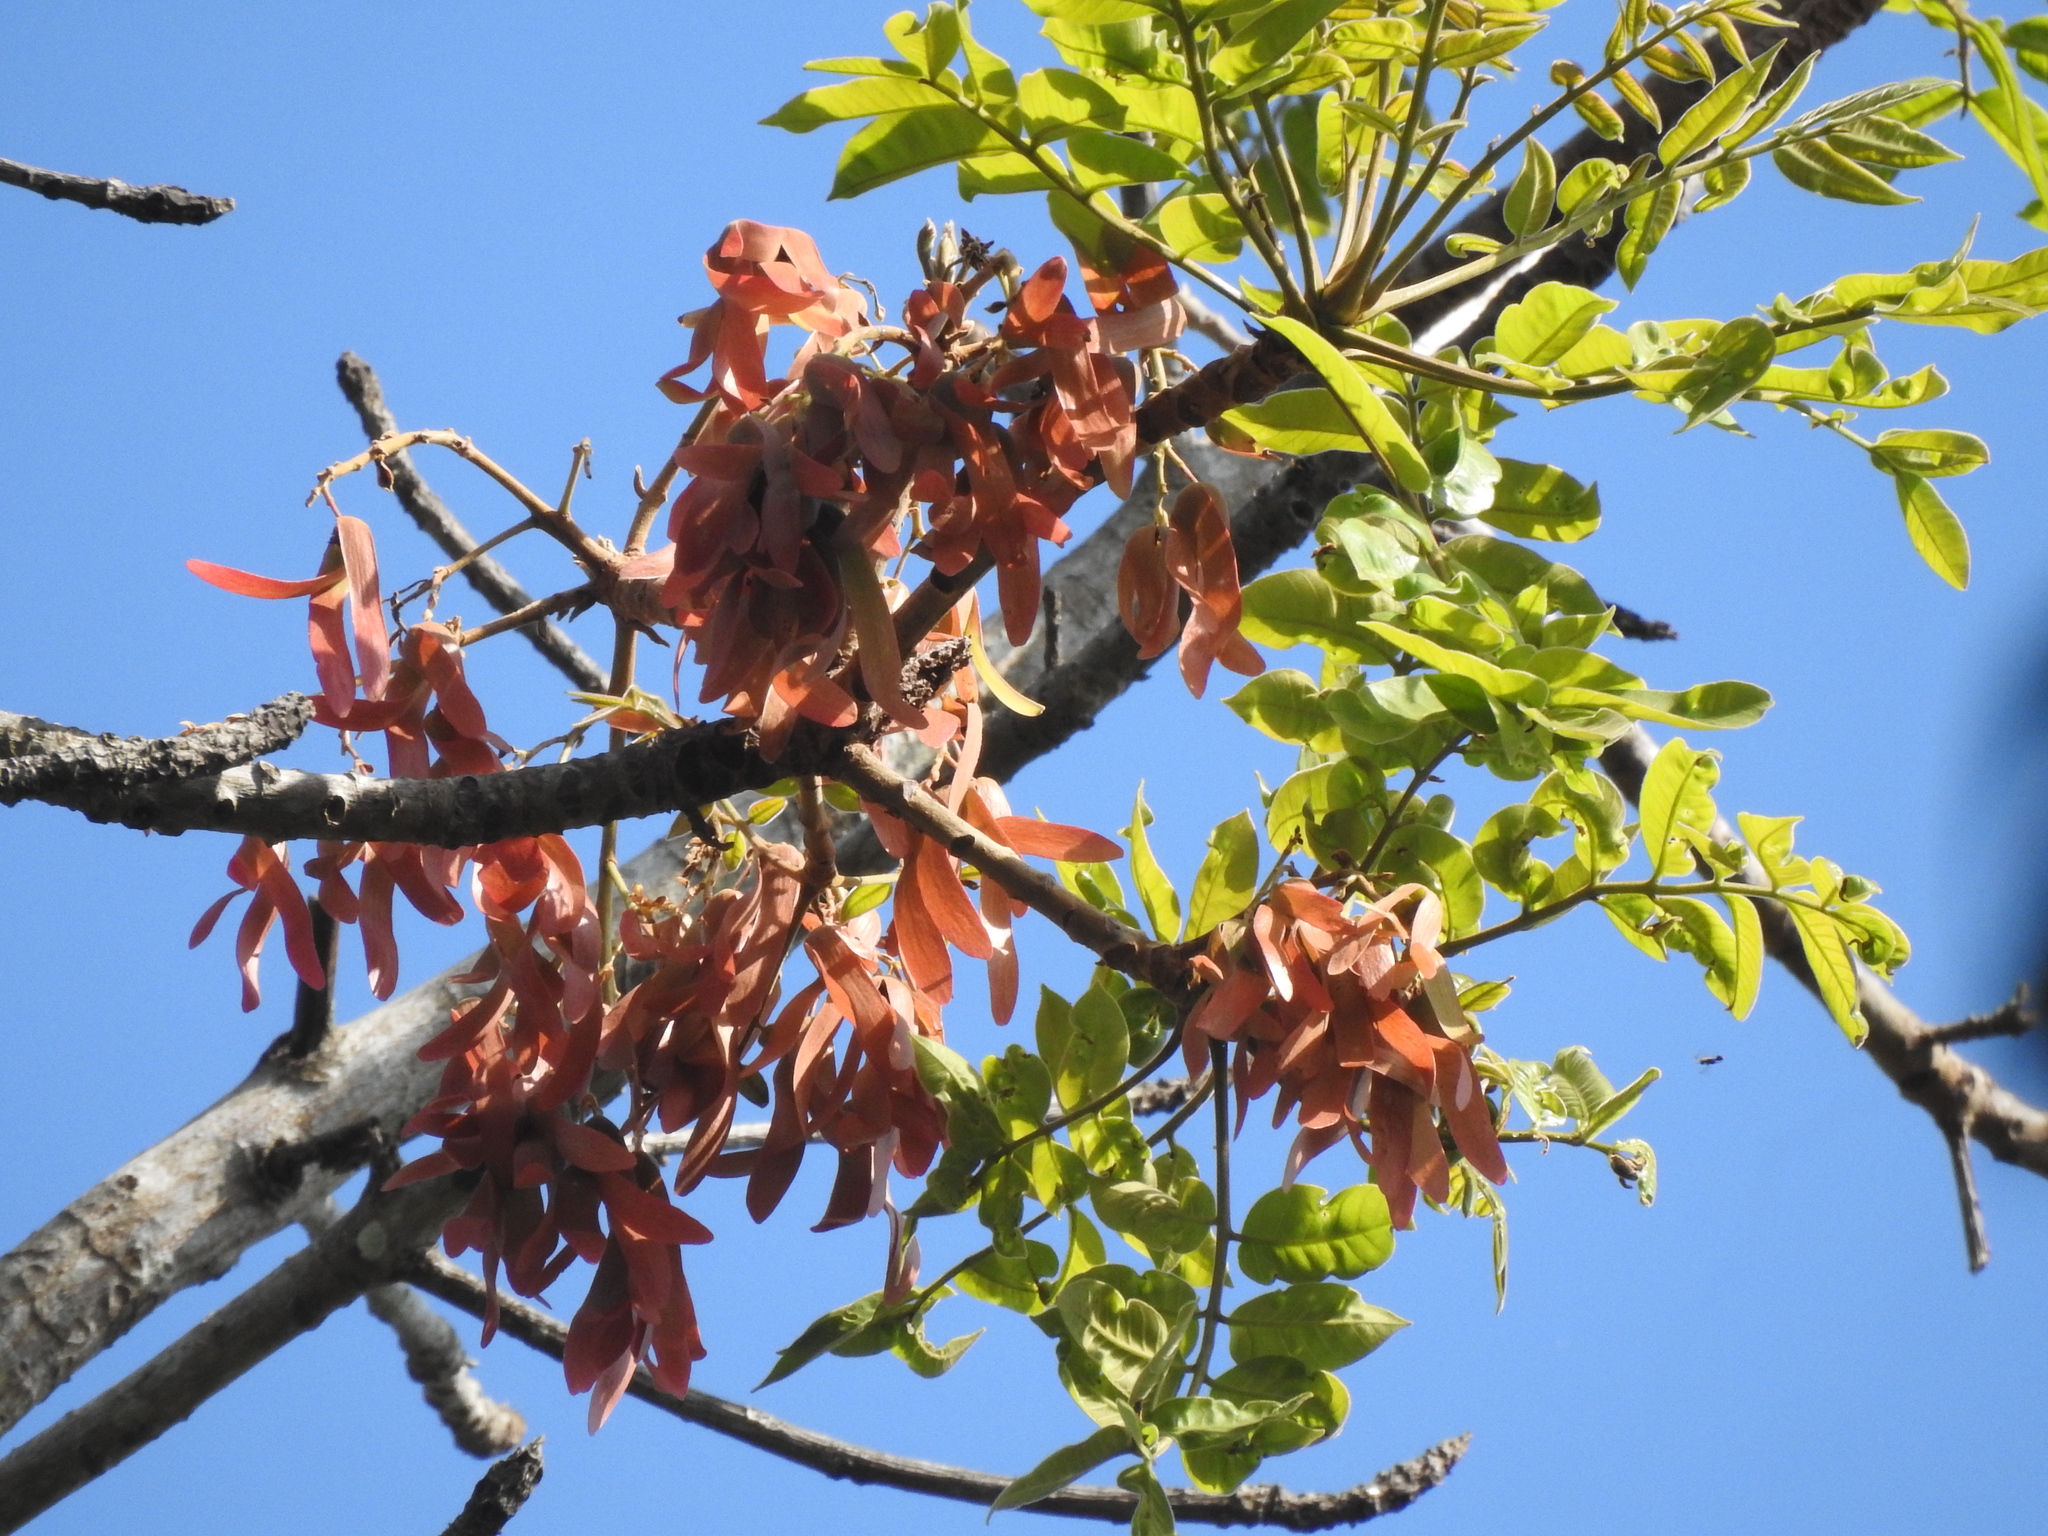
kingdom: Plantae
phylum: Tracheophyta
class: Magnoliopsida
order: Sapindales
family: Anacardiaceae
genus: Parishia
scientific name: Parishia insignis
